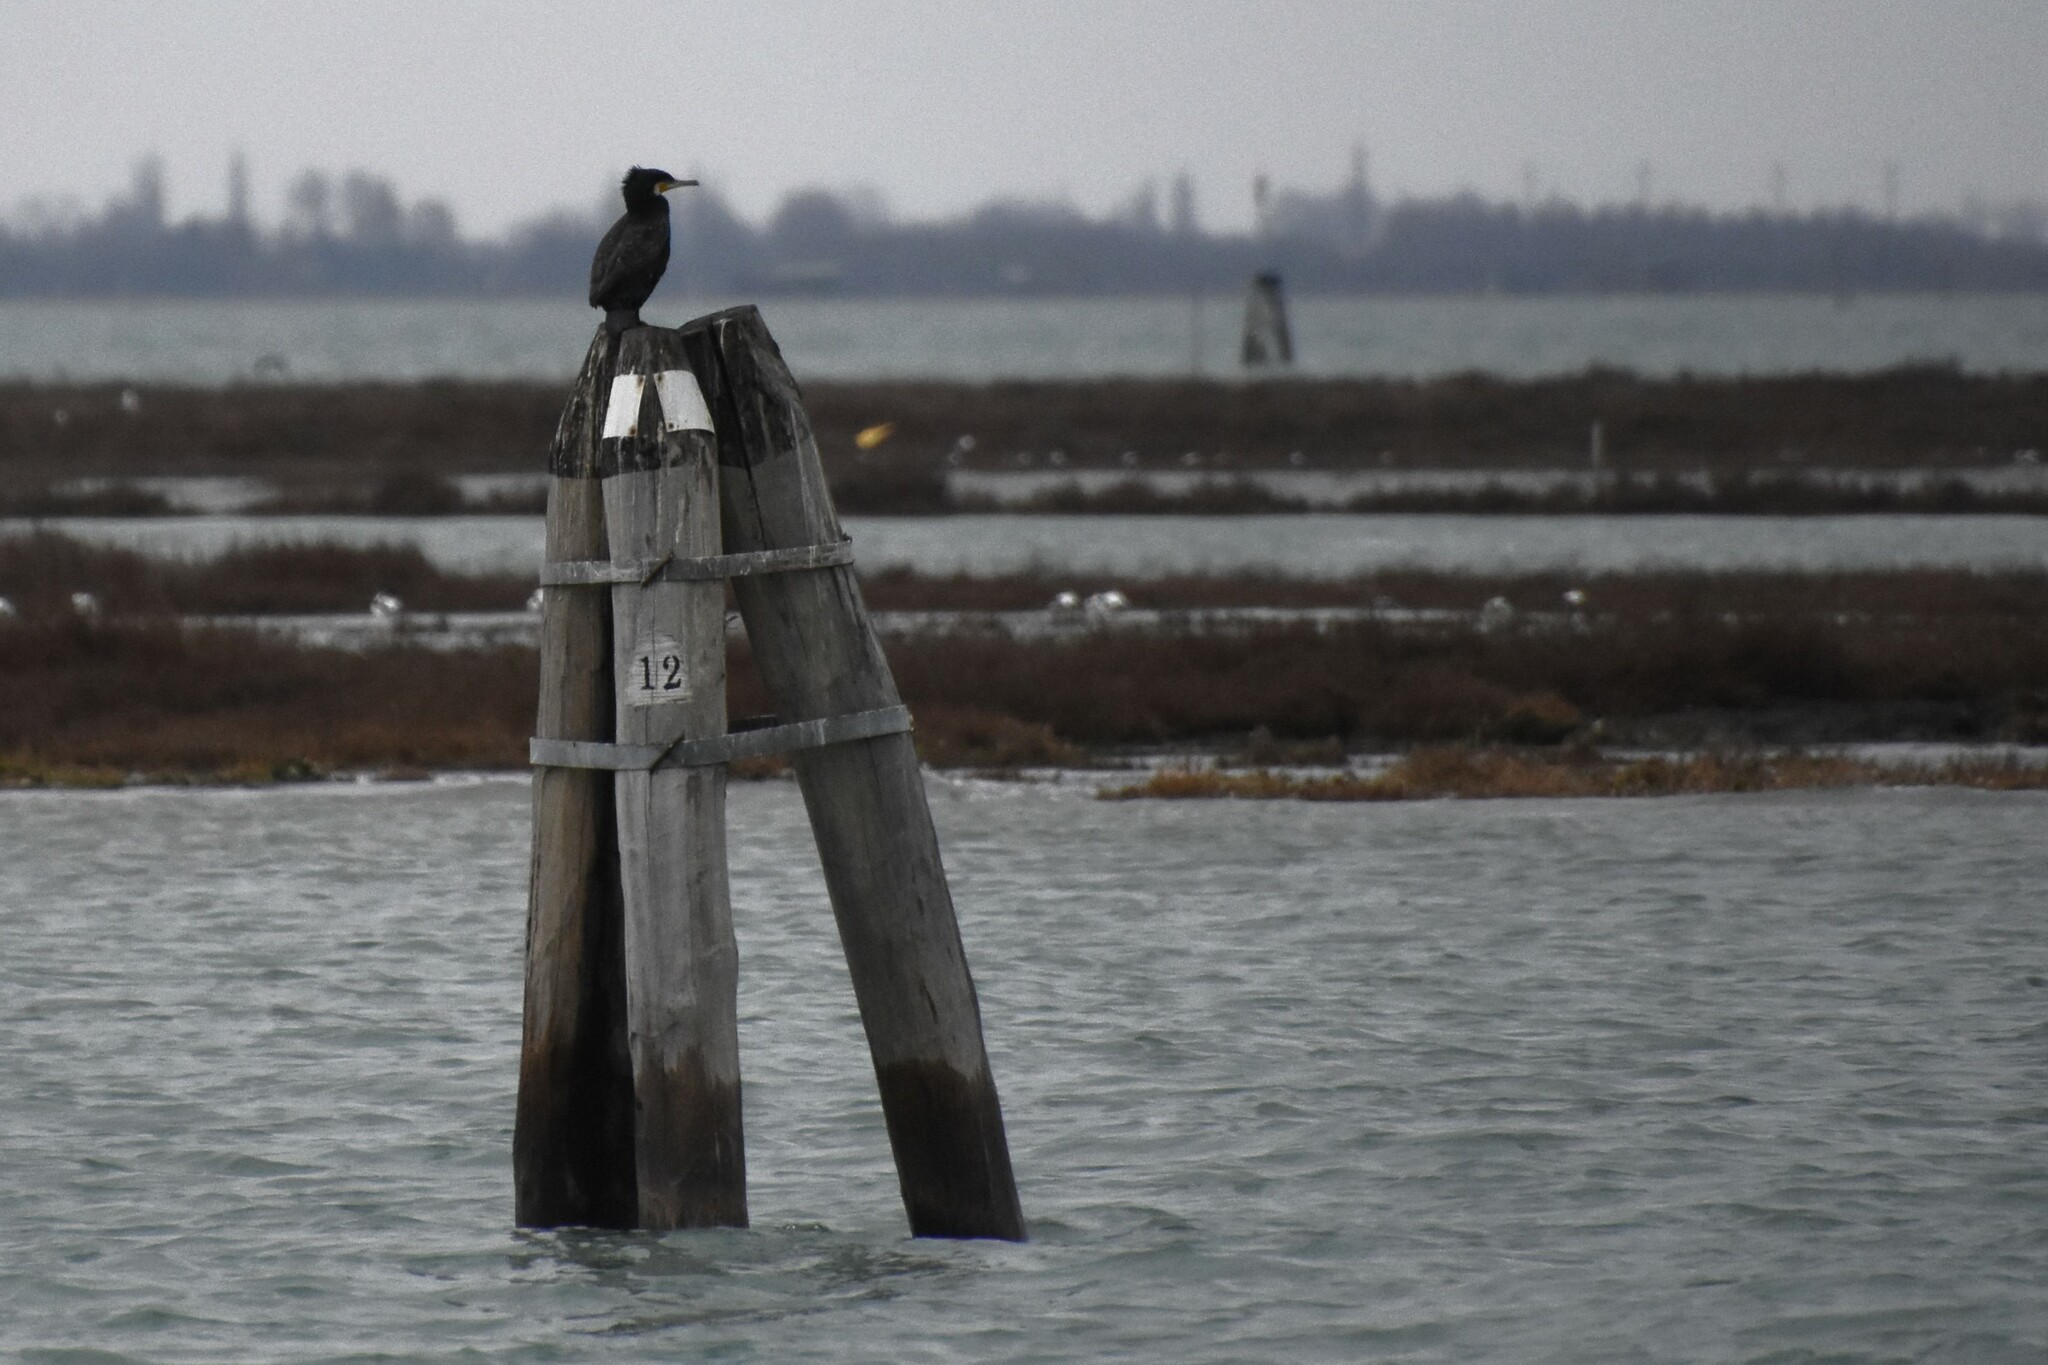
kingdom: Animalia
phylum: Chordata
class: Aves
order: Suliformes
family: Phalacrocoracidae
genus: Phalacrocorax
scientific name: Phalacrocorax carbo
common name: Great cormorant
